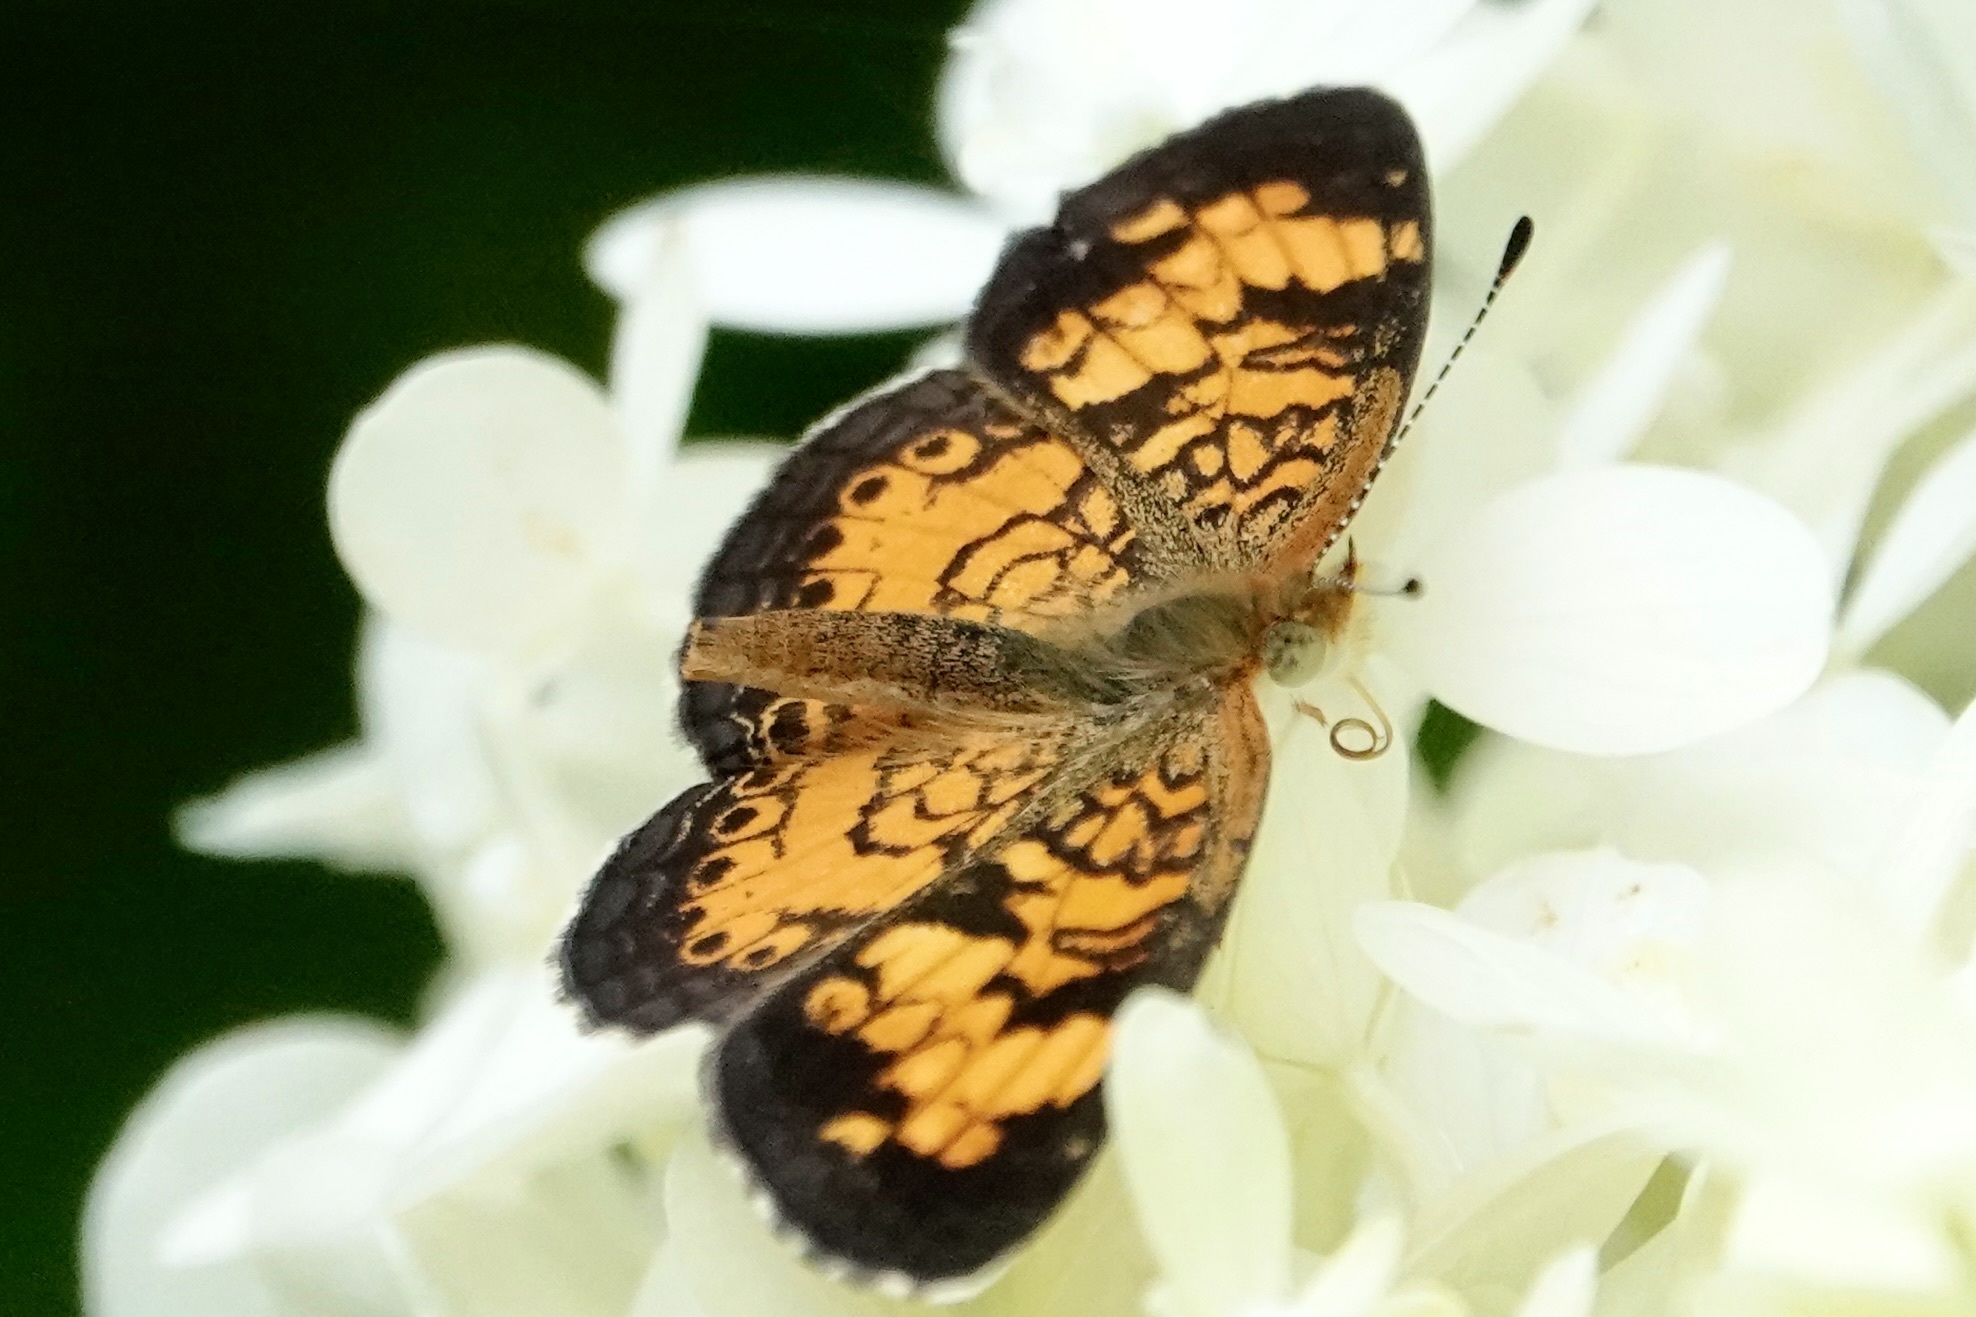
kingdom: Animalia
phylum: Arthropoda
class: Insecta
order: Lepidoptera
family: Nymphalidae
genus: Phyciodes
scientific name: Phyciodes tharos
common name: Pearl crescent
